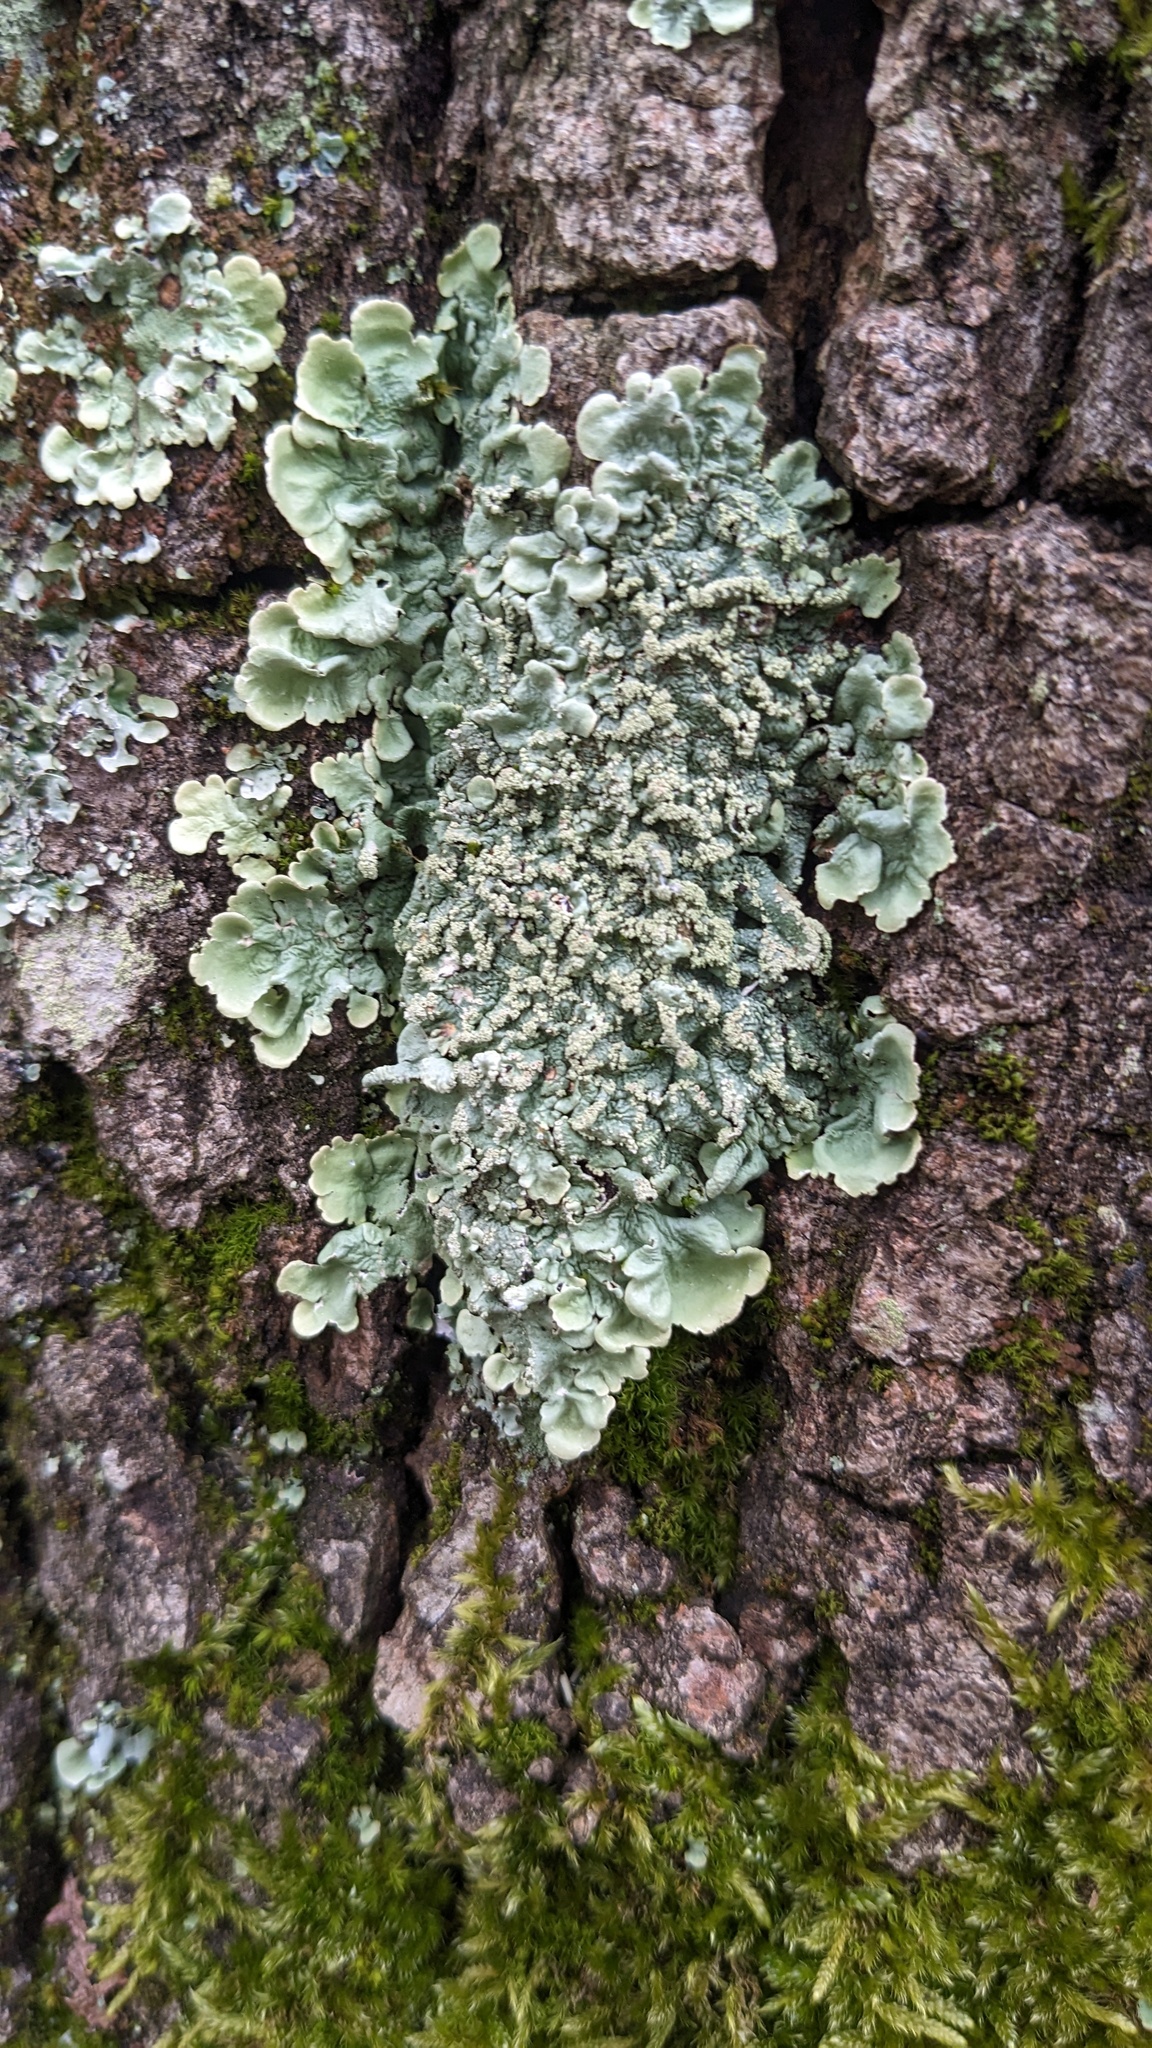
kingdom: Fungi
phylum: Ascomycota
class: Lecanoromycetes
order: Lecanorales
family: Parmeliaceae
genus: Flavoparmelia
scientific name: Flavoparmelia caperata
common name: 40-mile per hour lichen
